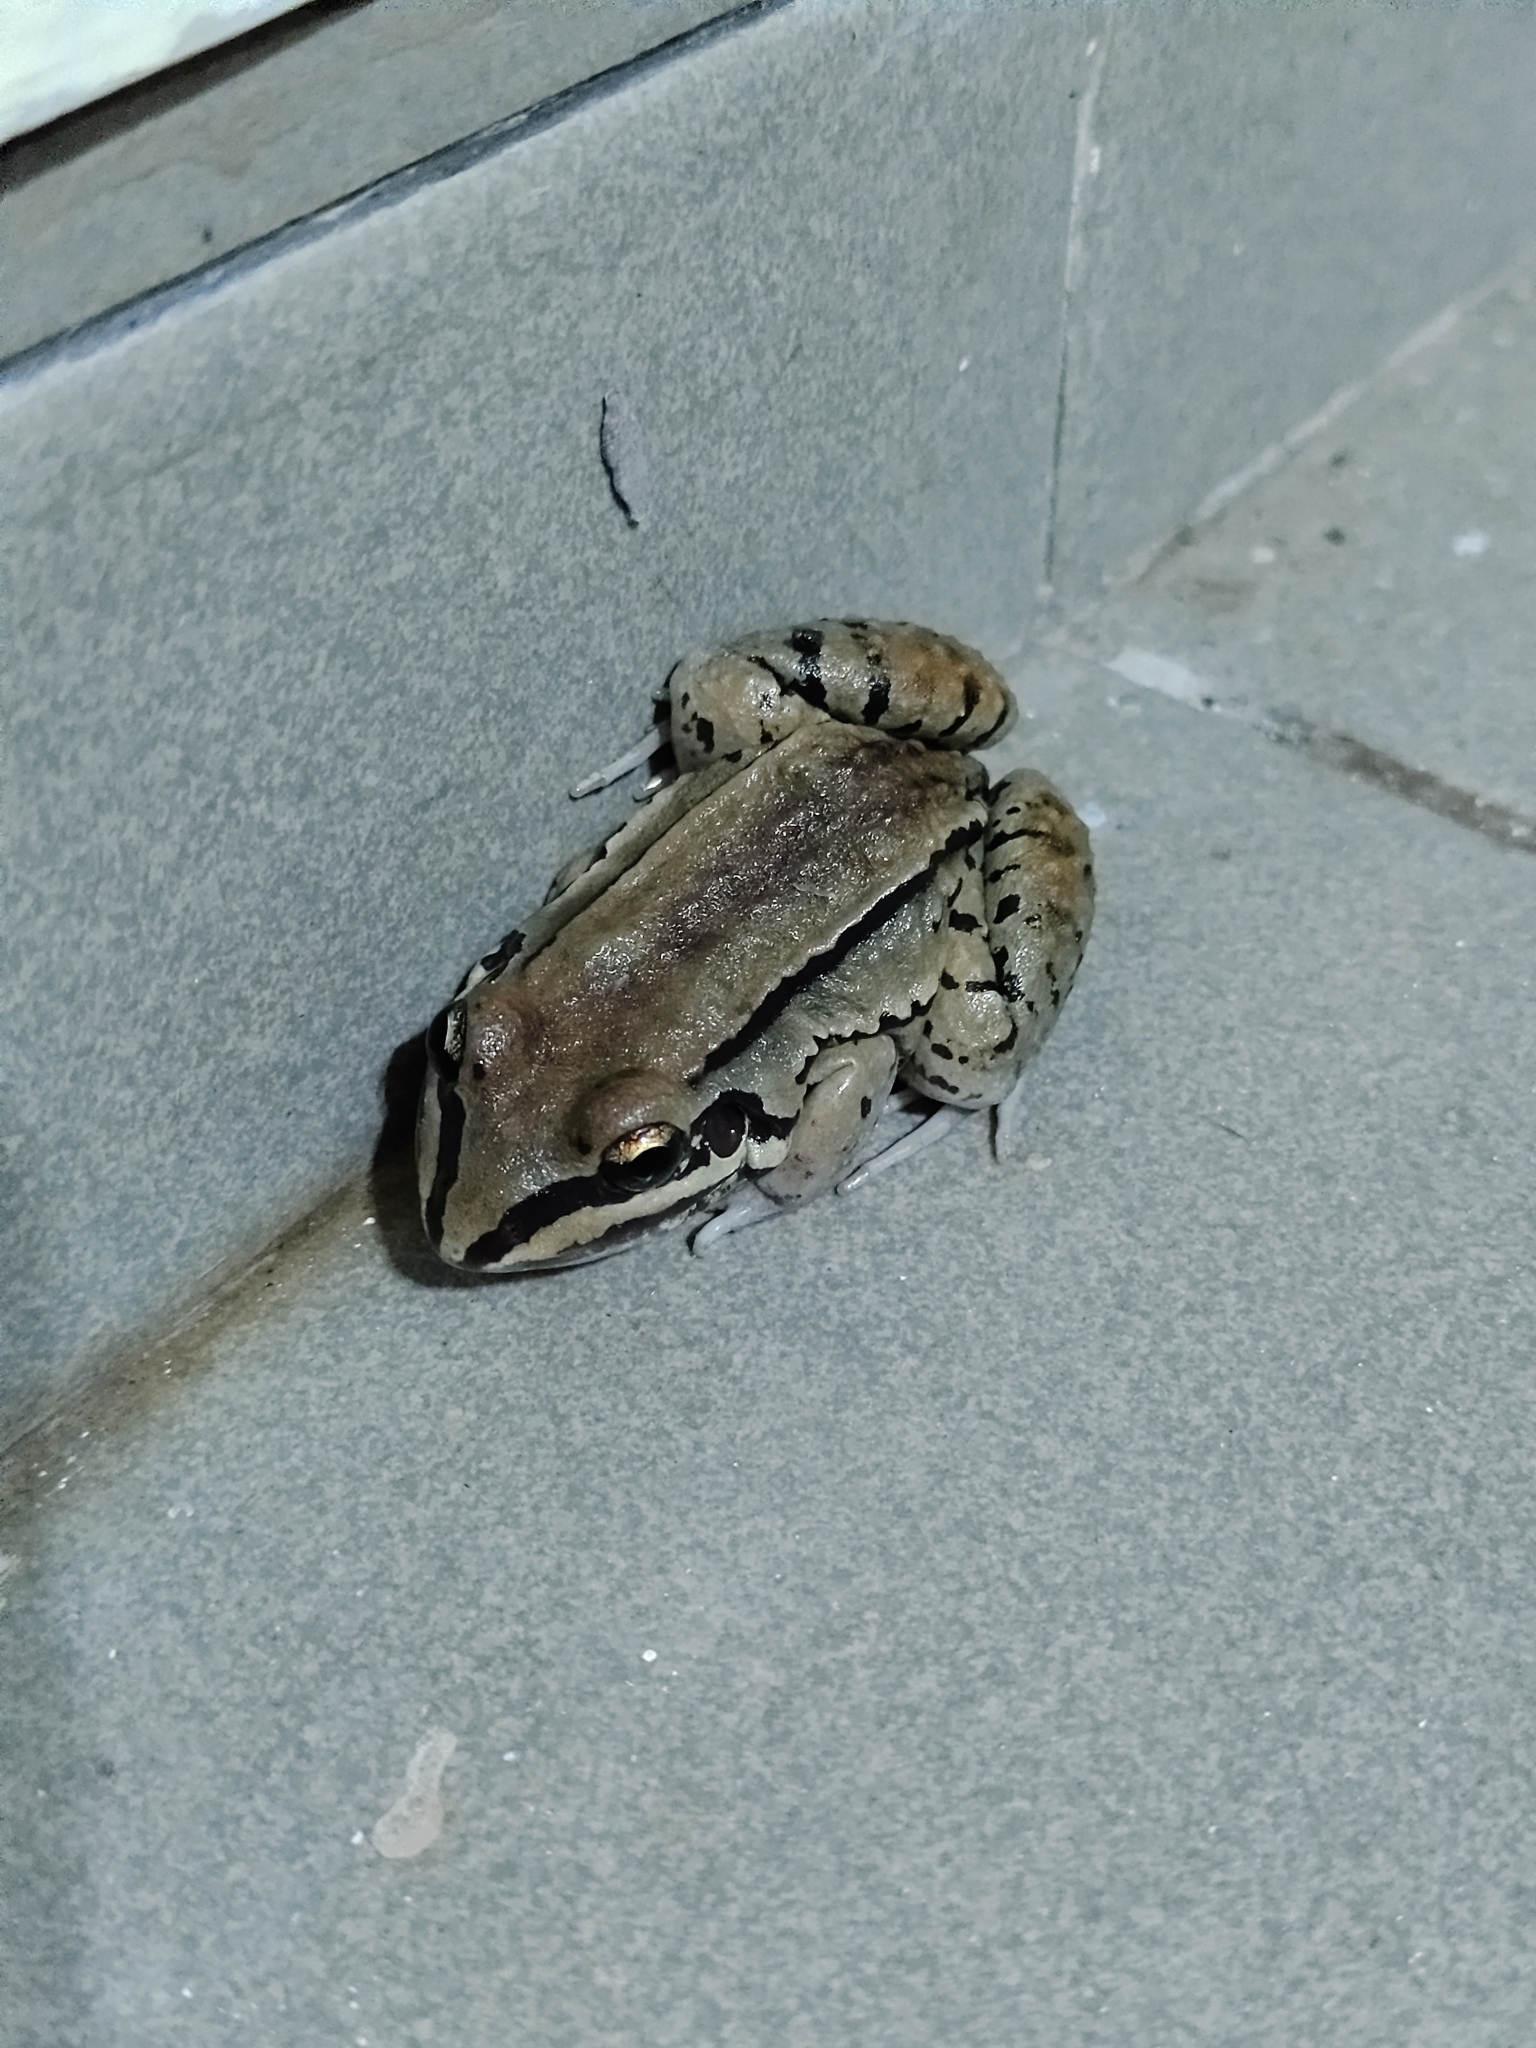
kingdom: Animalia
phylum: Chordata
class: Amphibia
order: Anura
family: Leptodactylidae
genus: Leptodactylus
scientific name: Leptodactylus mystacinus
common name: Moustached frog
